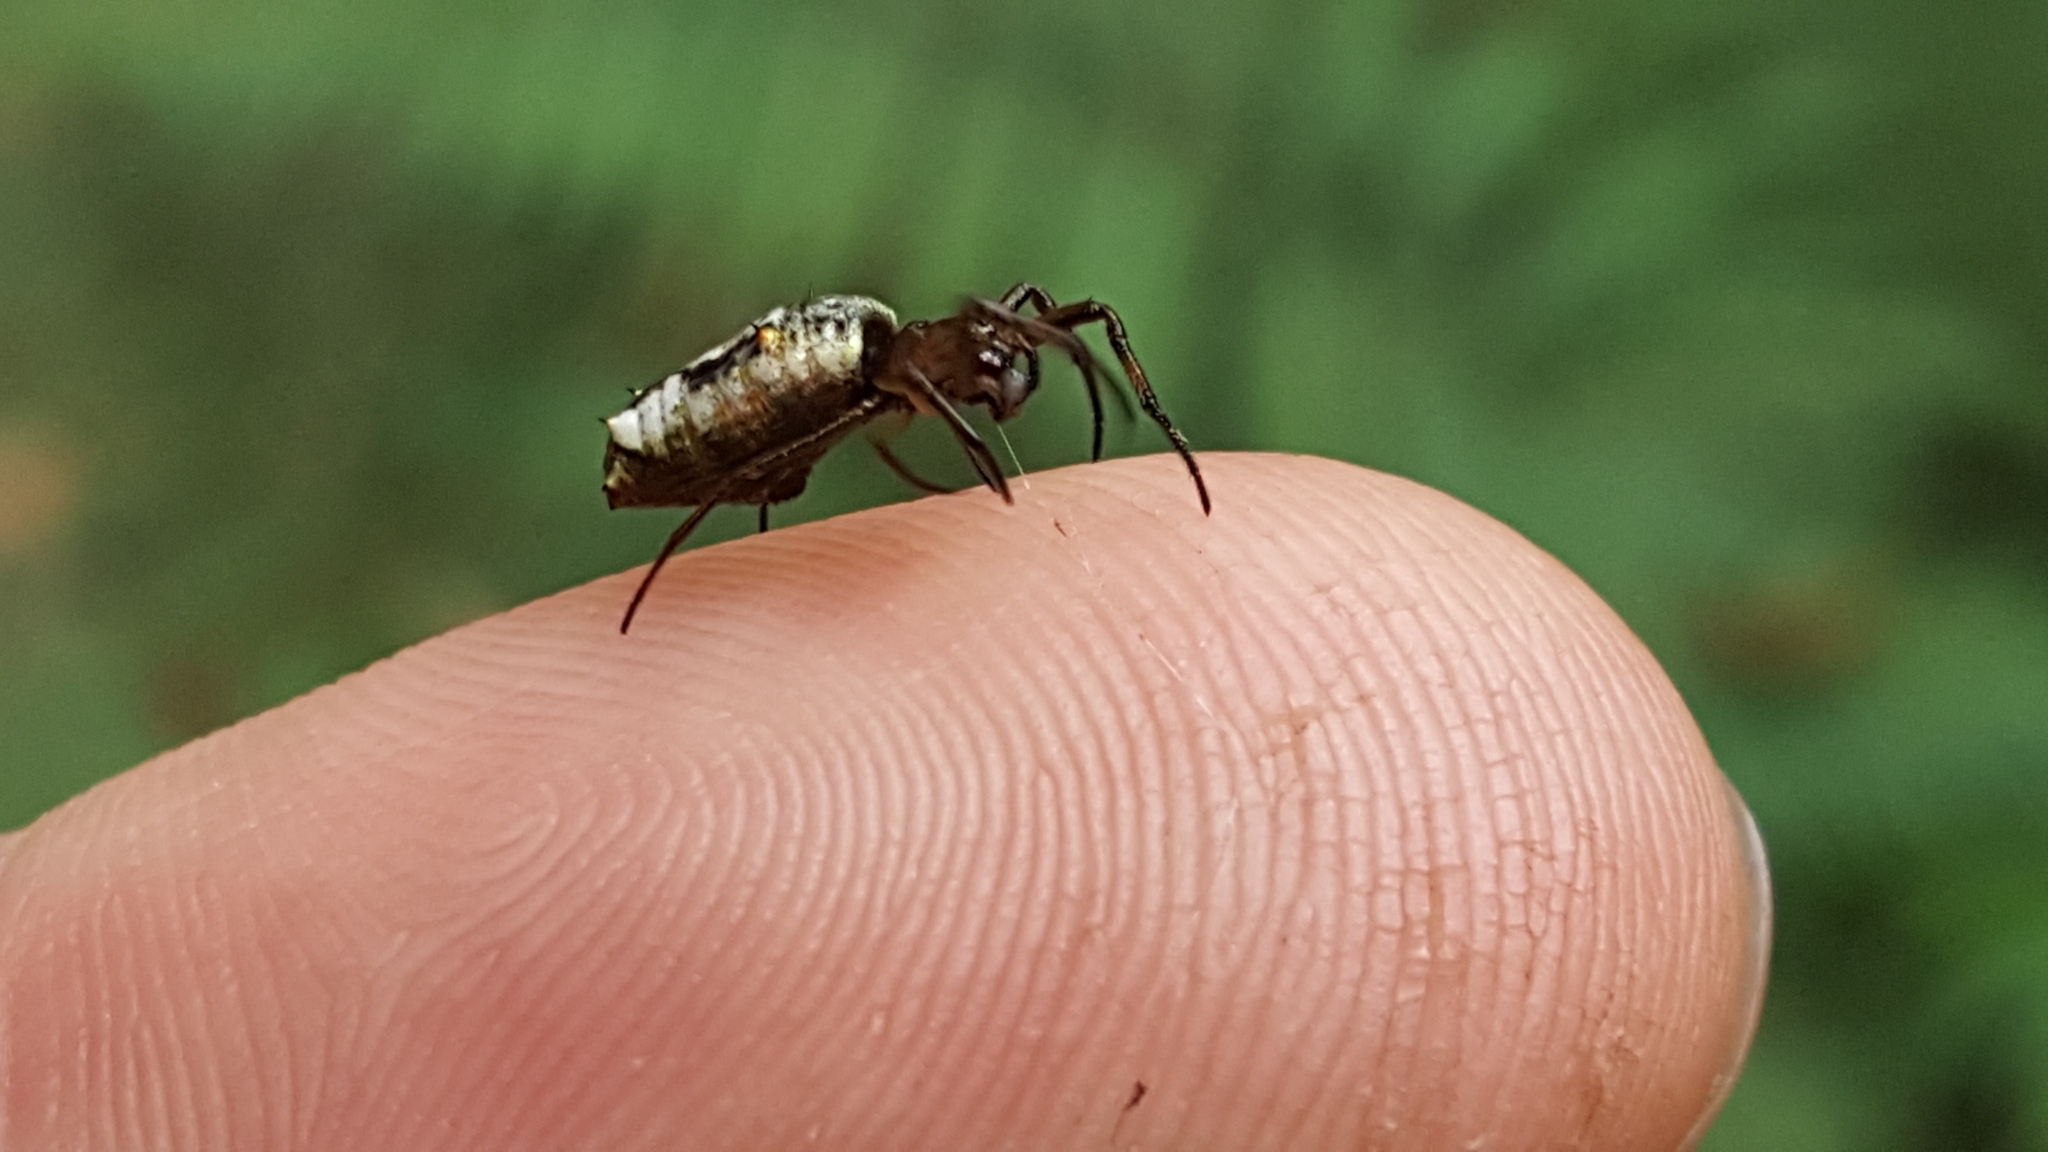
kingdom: Animalia
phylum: Arthropoda
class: Arachnida
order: Araneae
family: Araneidae
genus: Micrathena
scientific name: Micrathena bogota
